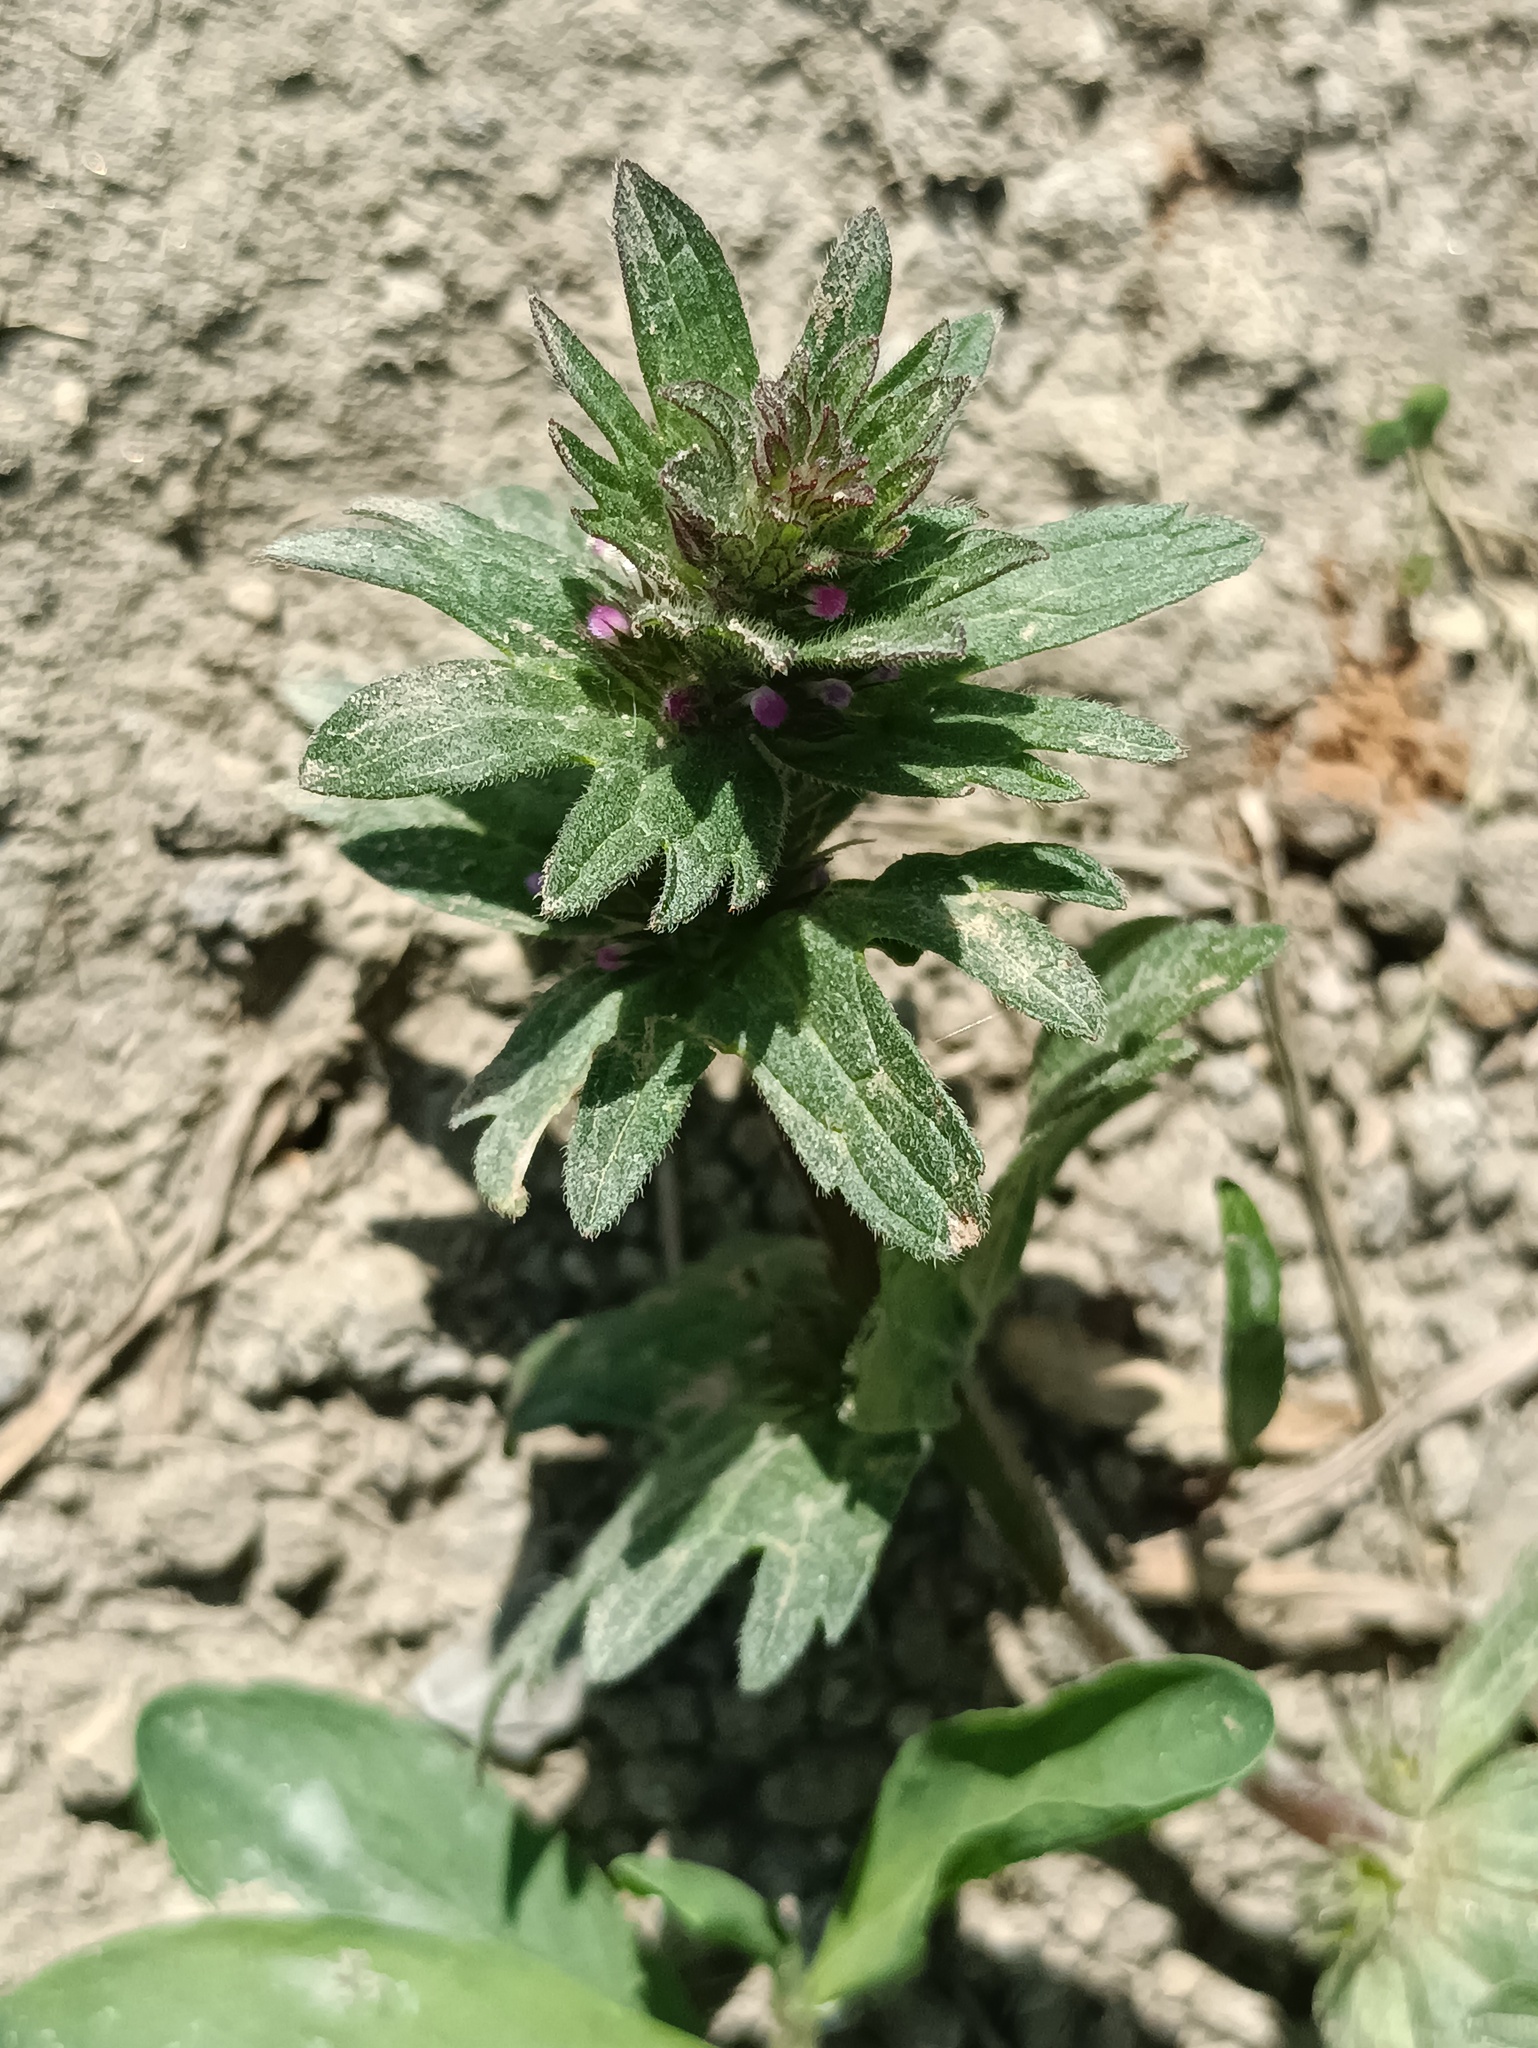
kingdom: Plantae
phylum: Tracheophyta
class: Magnoliopsida
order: Lamiales
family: Lamiaceae
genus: Lamium
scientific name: Lamium amplexicaule
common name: Henbit dead-nettle
